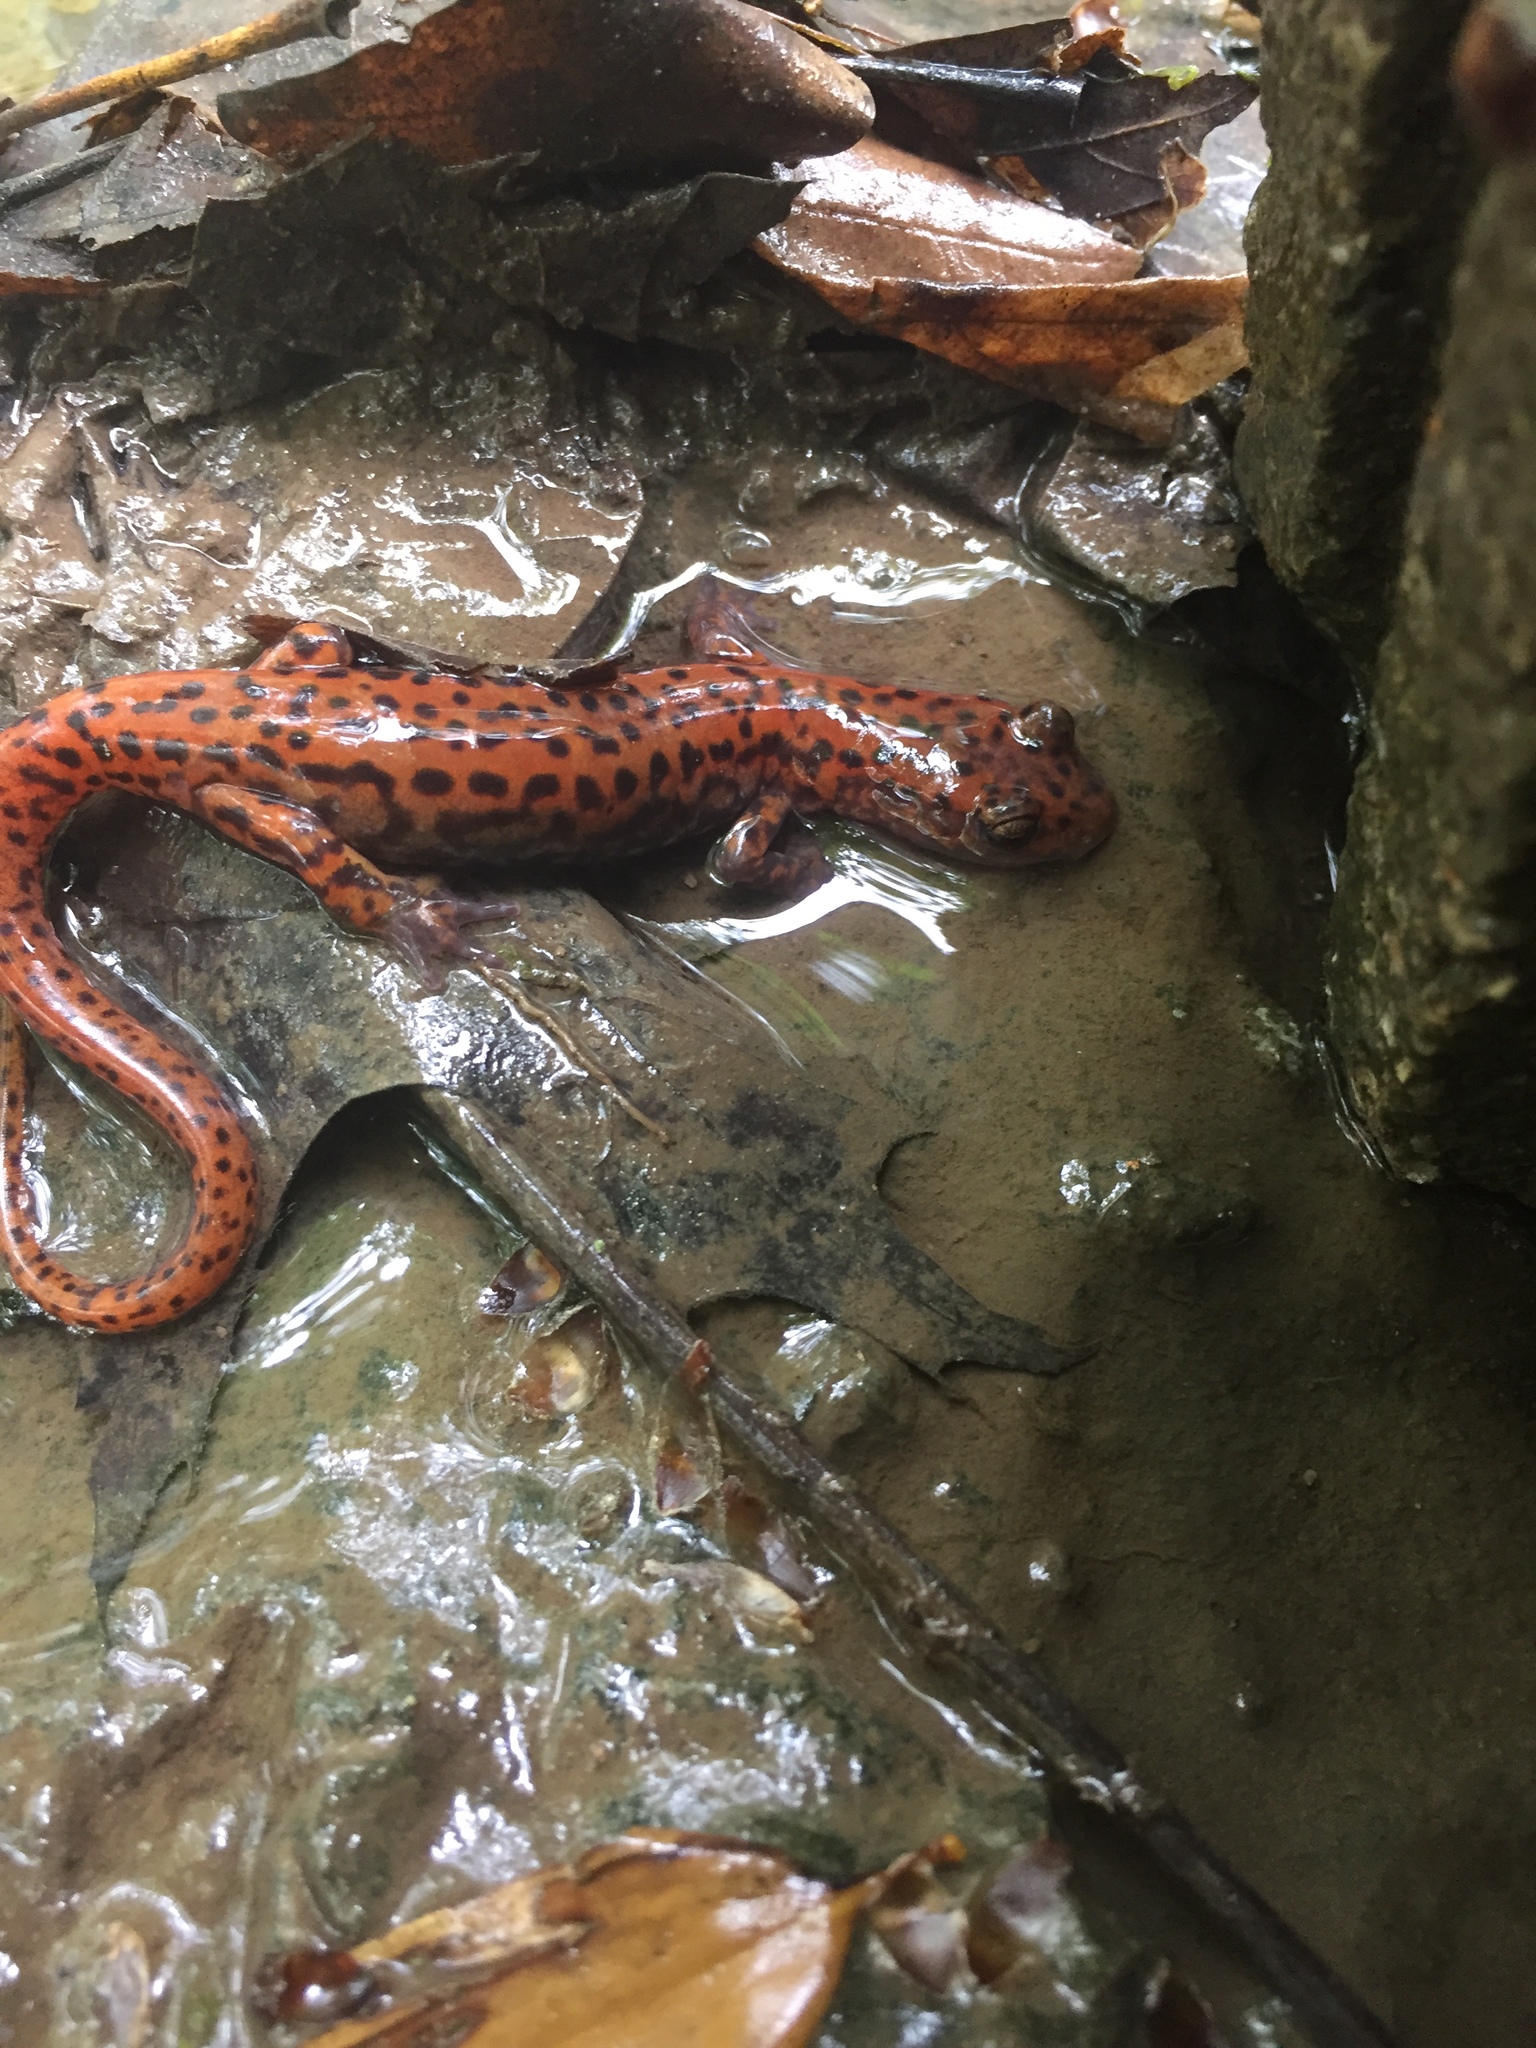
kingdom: Animalia
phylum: Chordata
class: Amphibia
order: Caudata
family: Plethodontidae
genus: Eurycea
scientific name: Eurycea lucifuga
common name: Cave salamander
